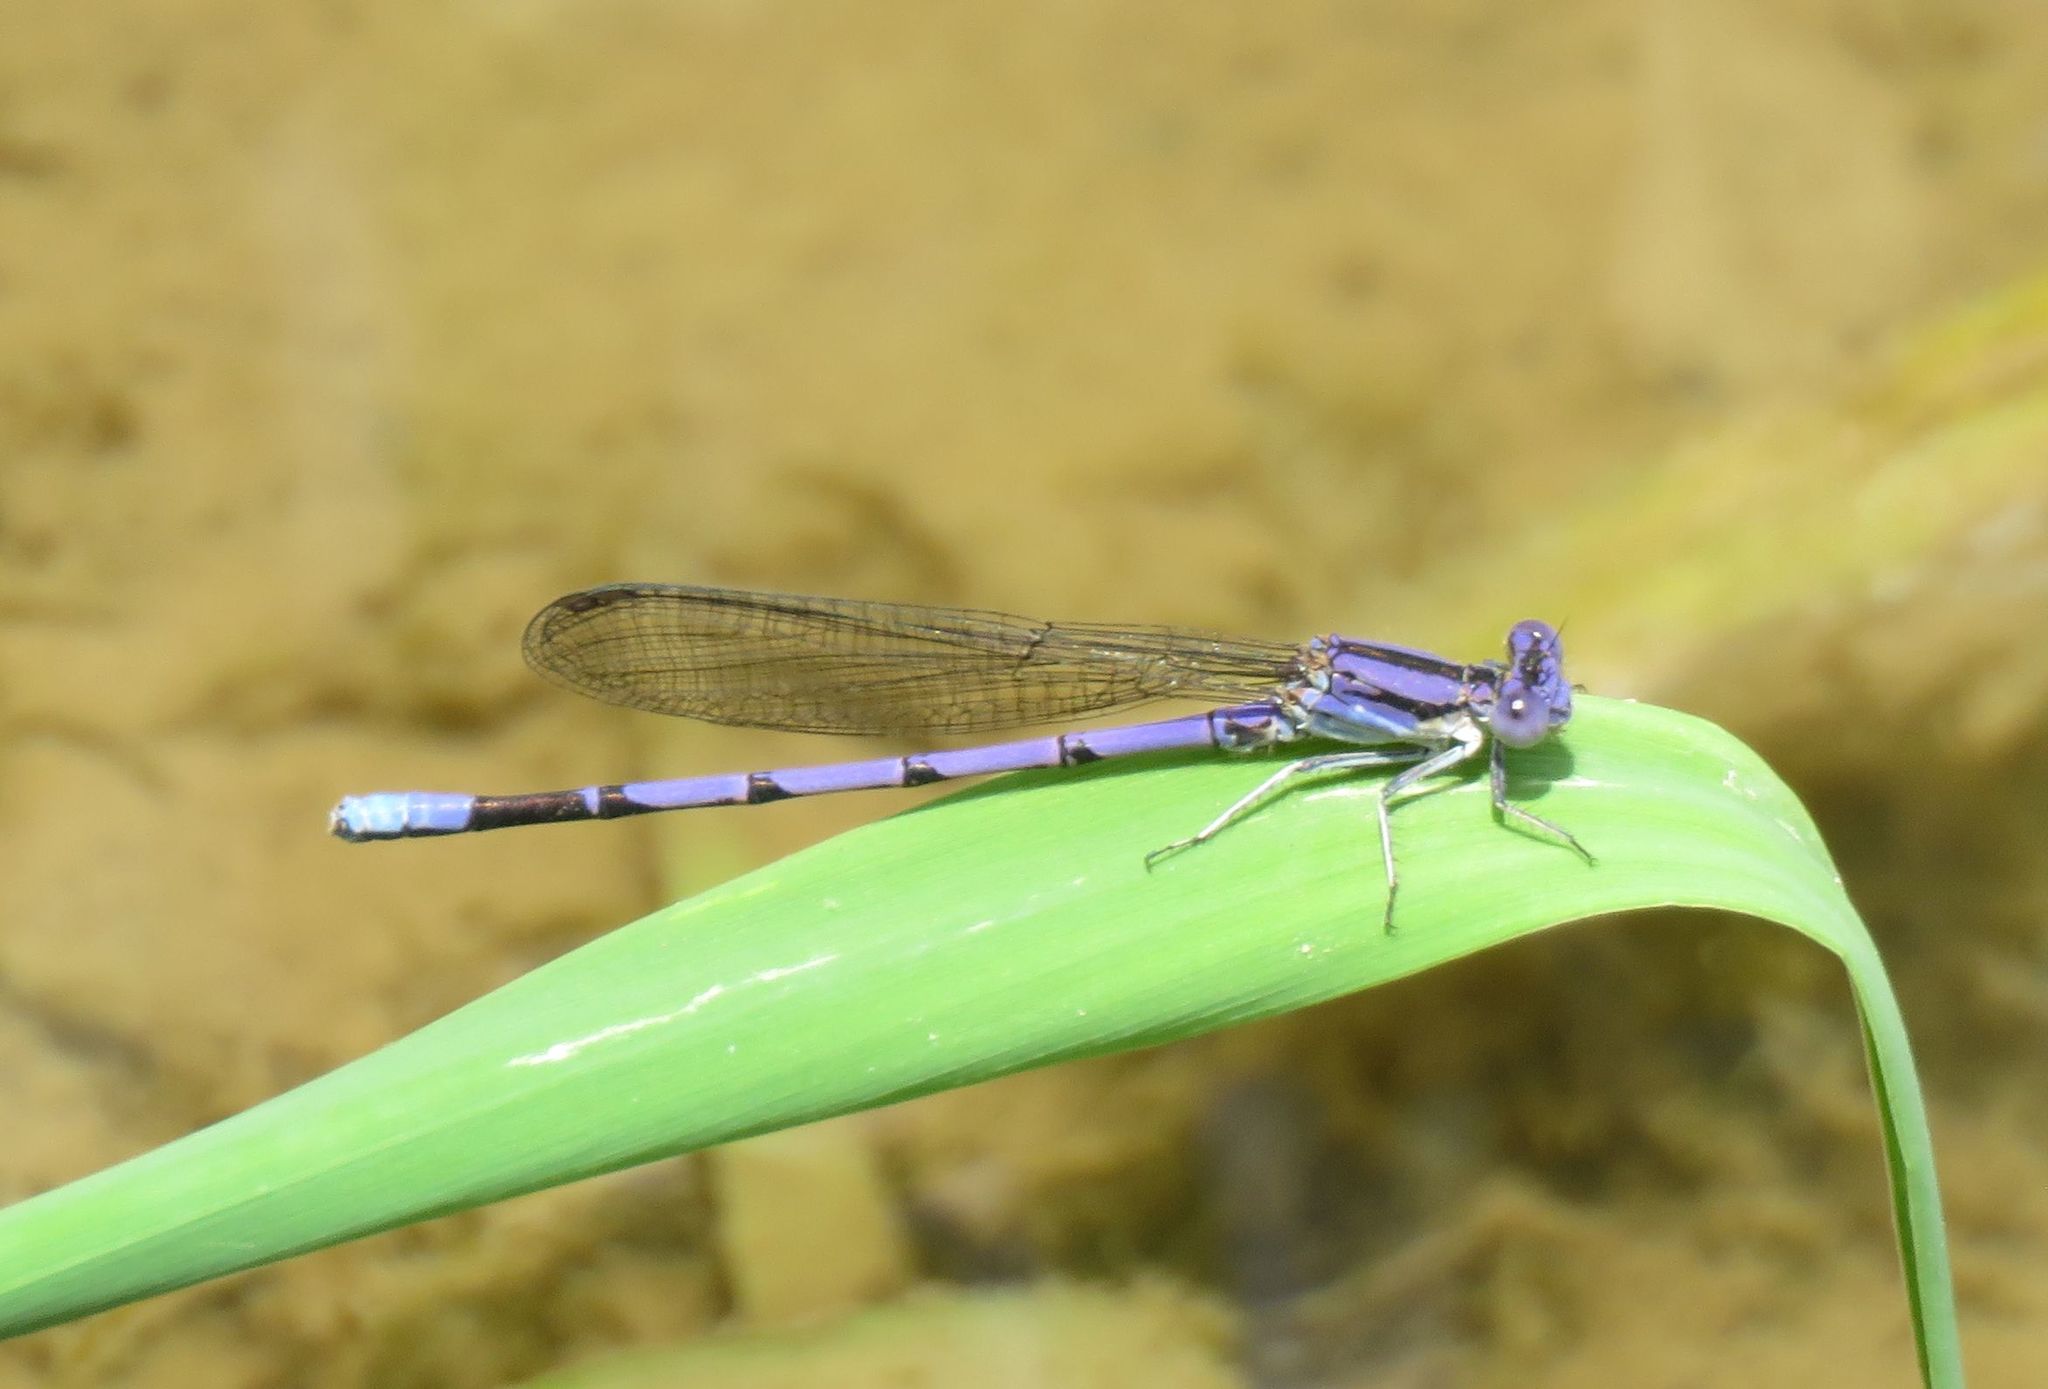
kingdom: Animalia
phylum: Arthropoda
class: Insecta
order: Odonata
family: Coenagrionidae
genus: Argia
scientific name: Argia fumipennis
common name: Variable dancer
